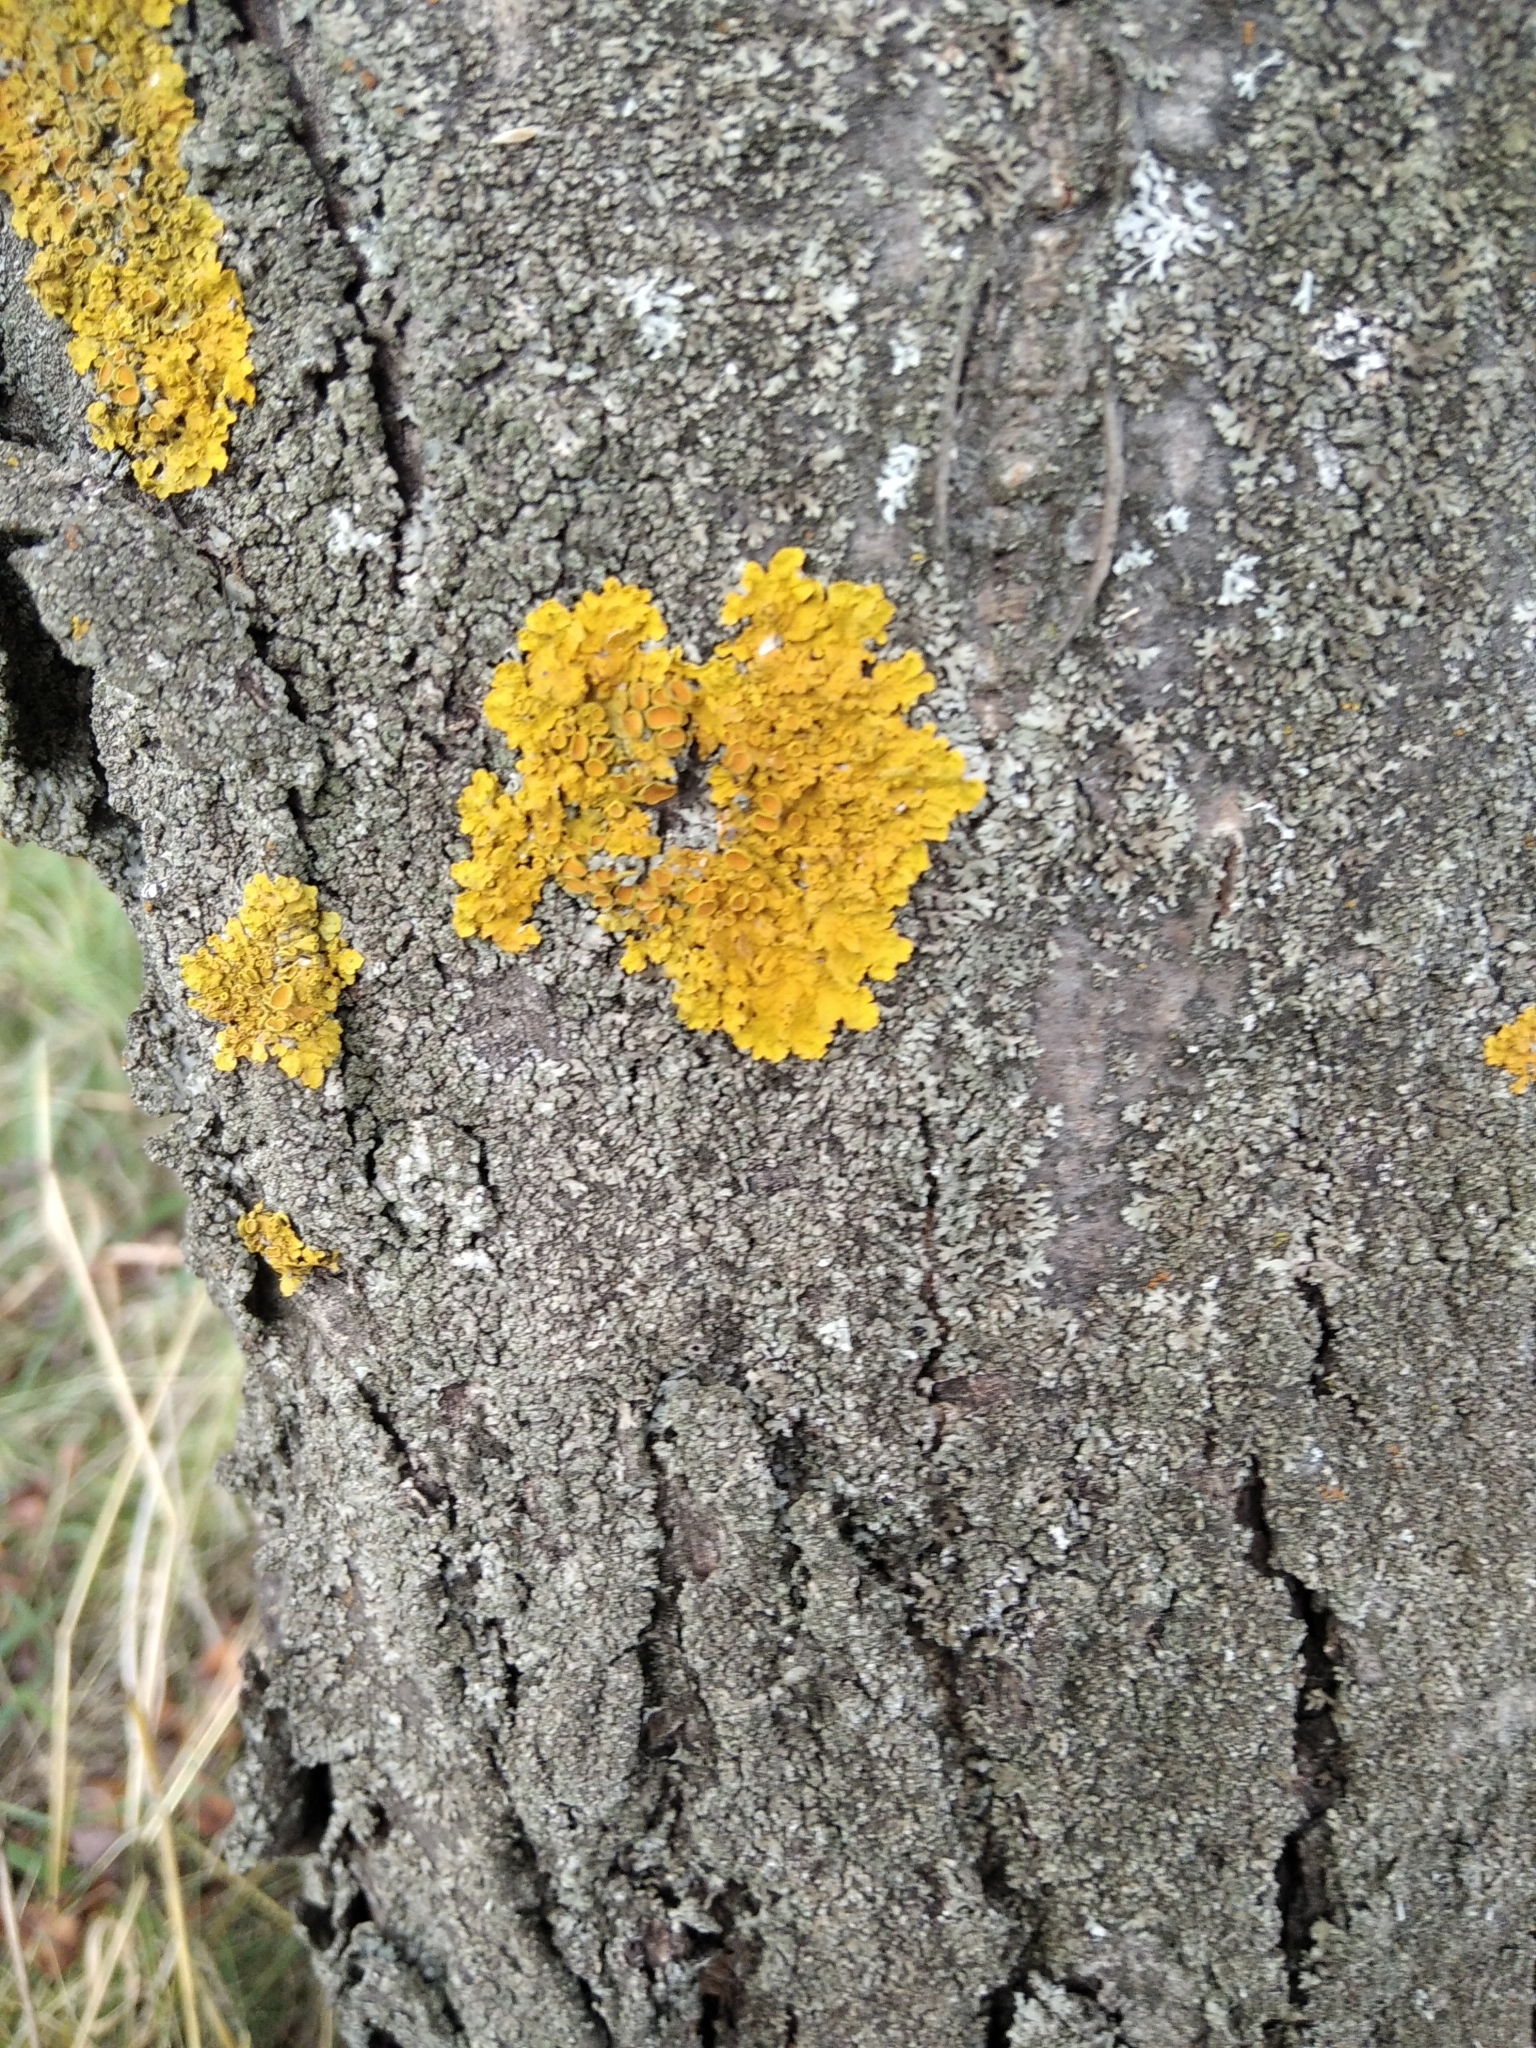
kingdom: Fungi
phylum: Ascomycota
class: Lecanoromycetes
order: Teloschistales
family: Teloschistaceae
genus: Xanthoria
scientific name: Xanthoria parietina
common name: Common orange lichen
